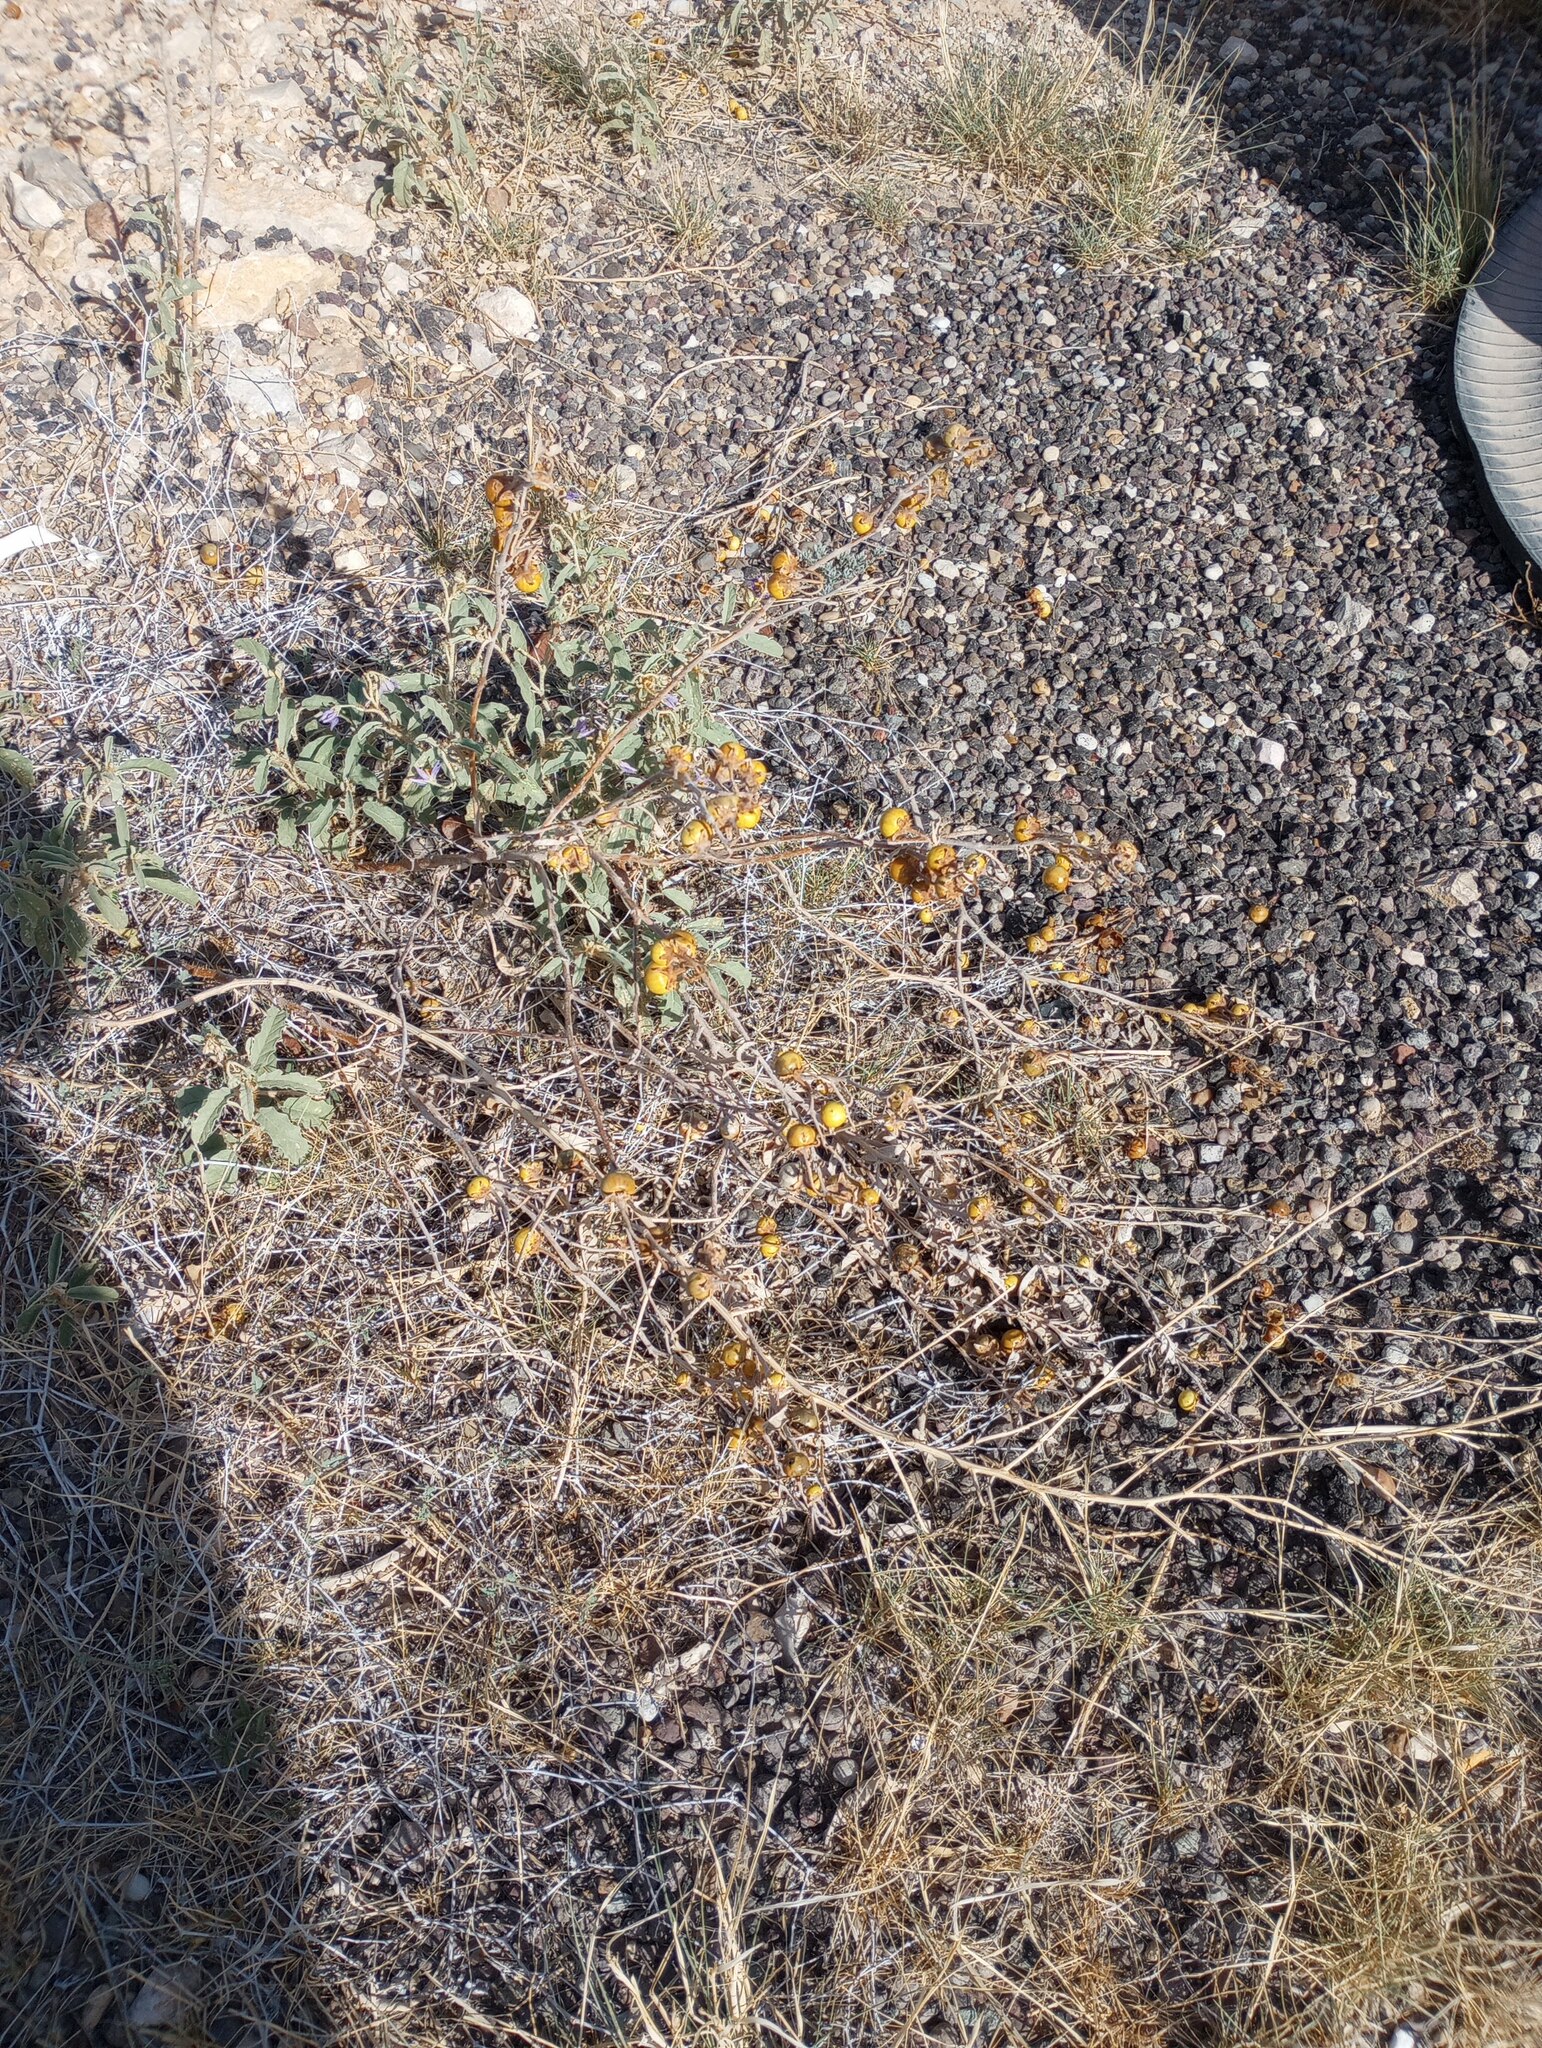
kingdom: Plantae
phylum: Tracheophyta
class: Magnoliopsida
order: Solanales
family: Solanaceae
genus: Solanum
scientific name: Solanum elaeagnifolium
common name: Silverleaf nightshade
